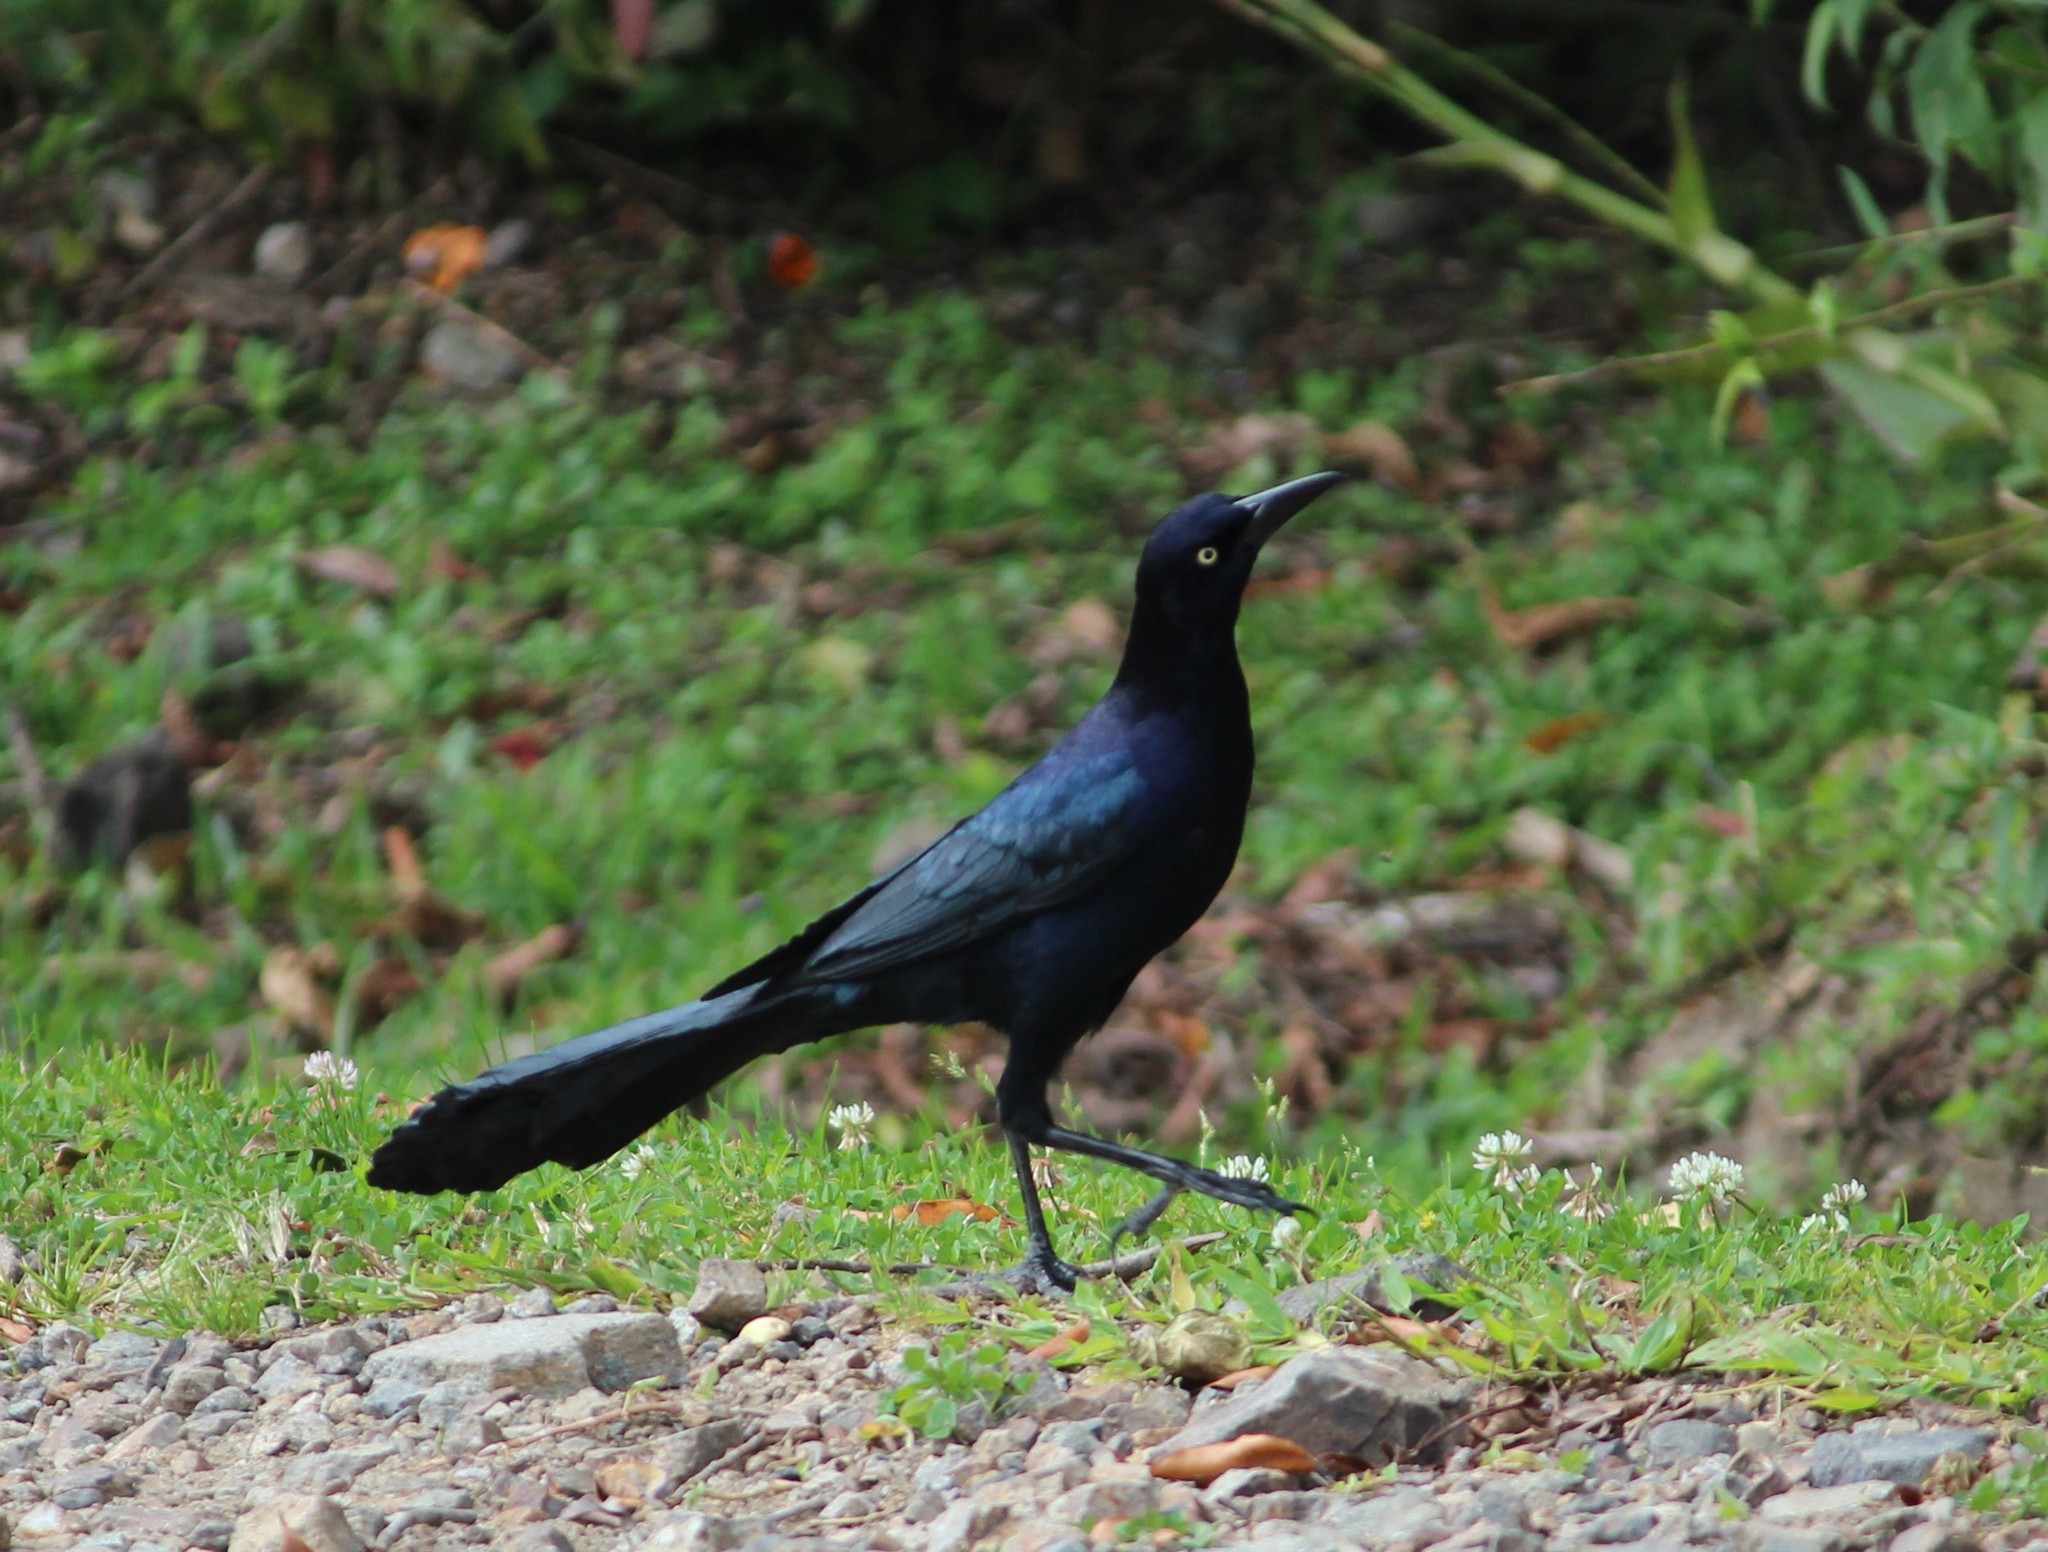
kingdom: Animalia
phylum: Chordata
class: Aves
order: Passeriformes
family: Icteridae
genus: Quiscalus
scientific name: Quiscalus mexicanus
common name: Great-tailed grackle
